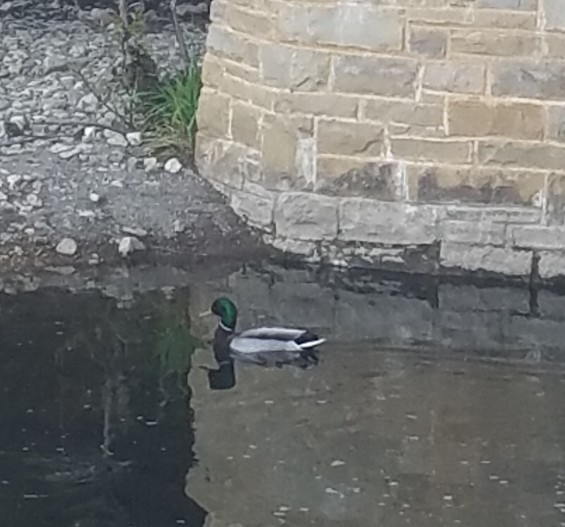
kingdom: Animalia
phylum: Chordata
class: Aves
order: Anseriformes
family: Anatidae
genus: Anas
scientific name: Anas platyrhynchos
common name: Mallard
